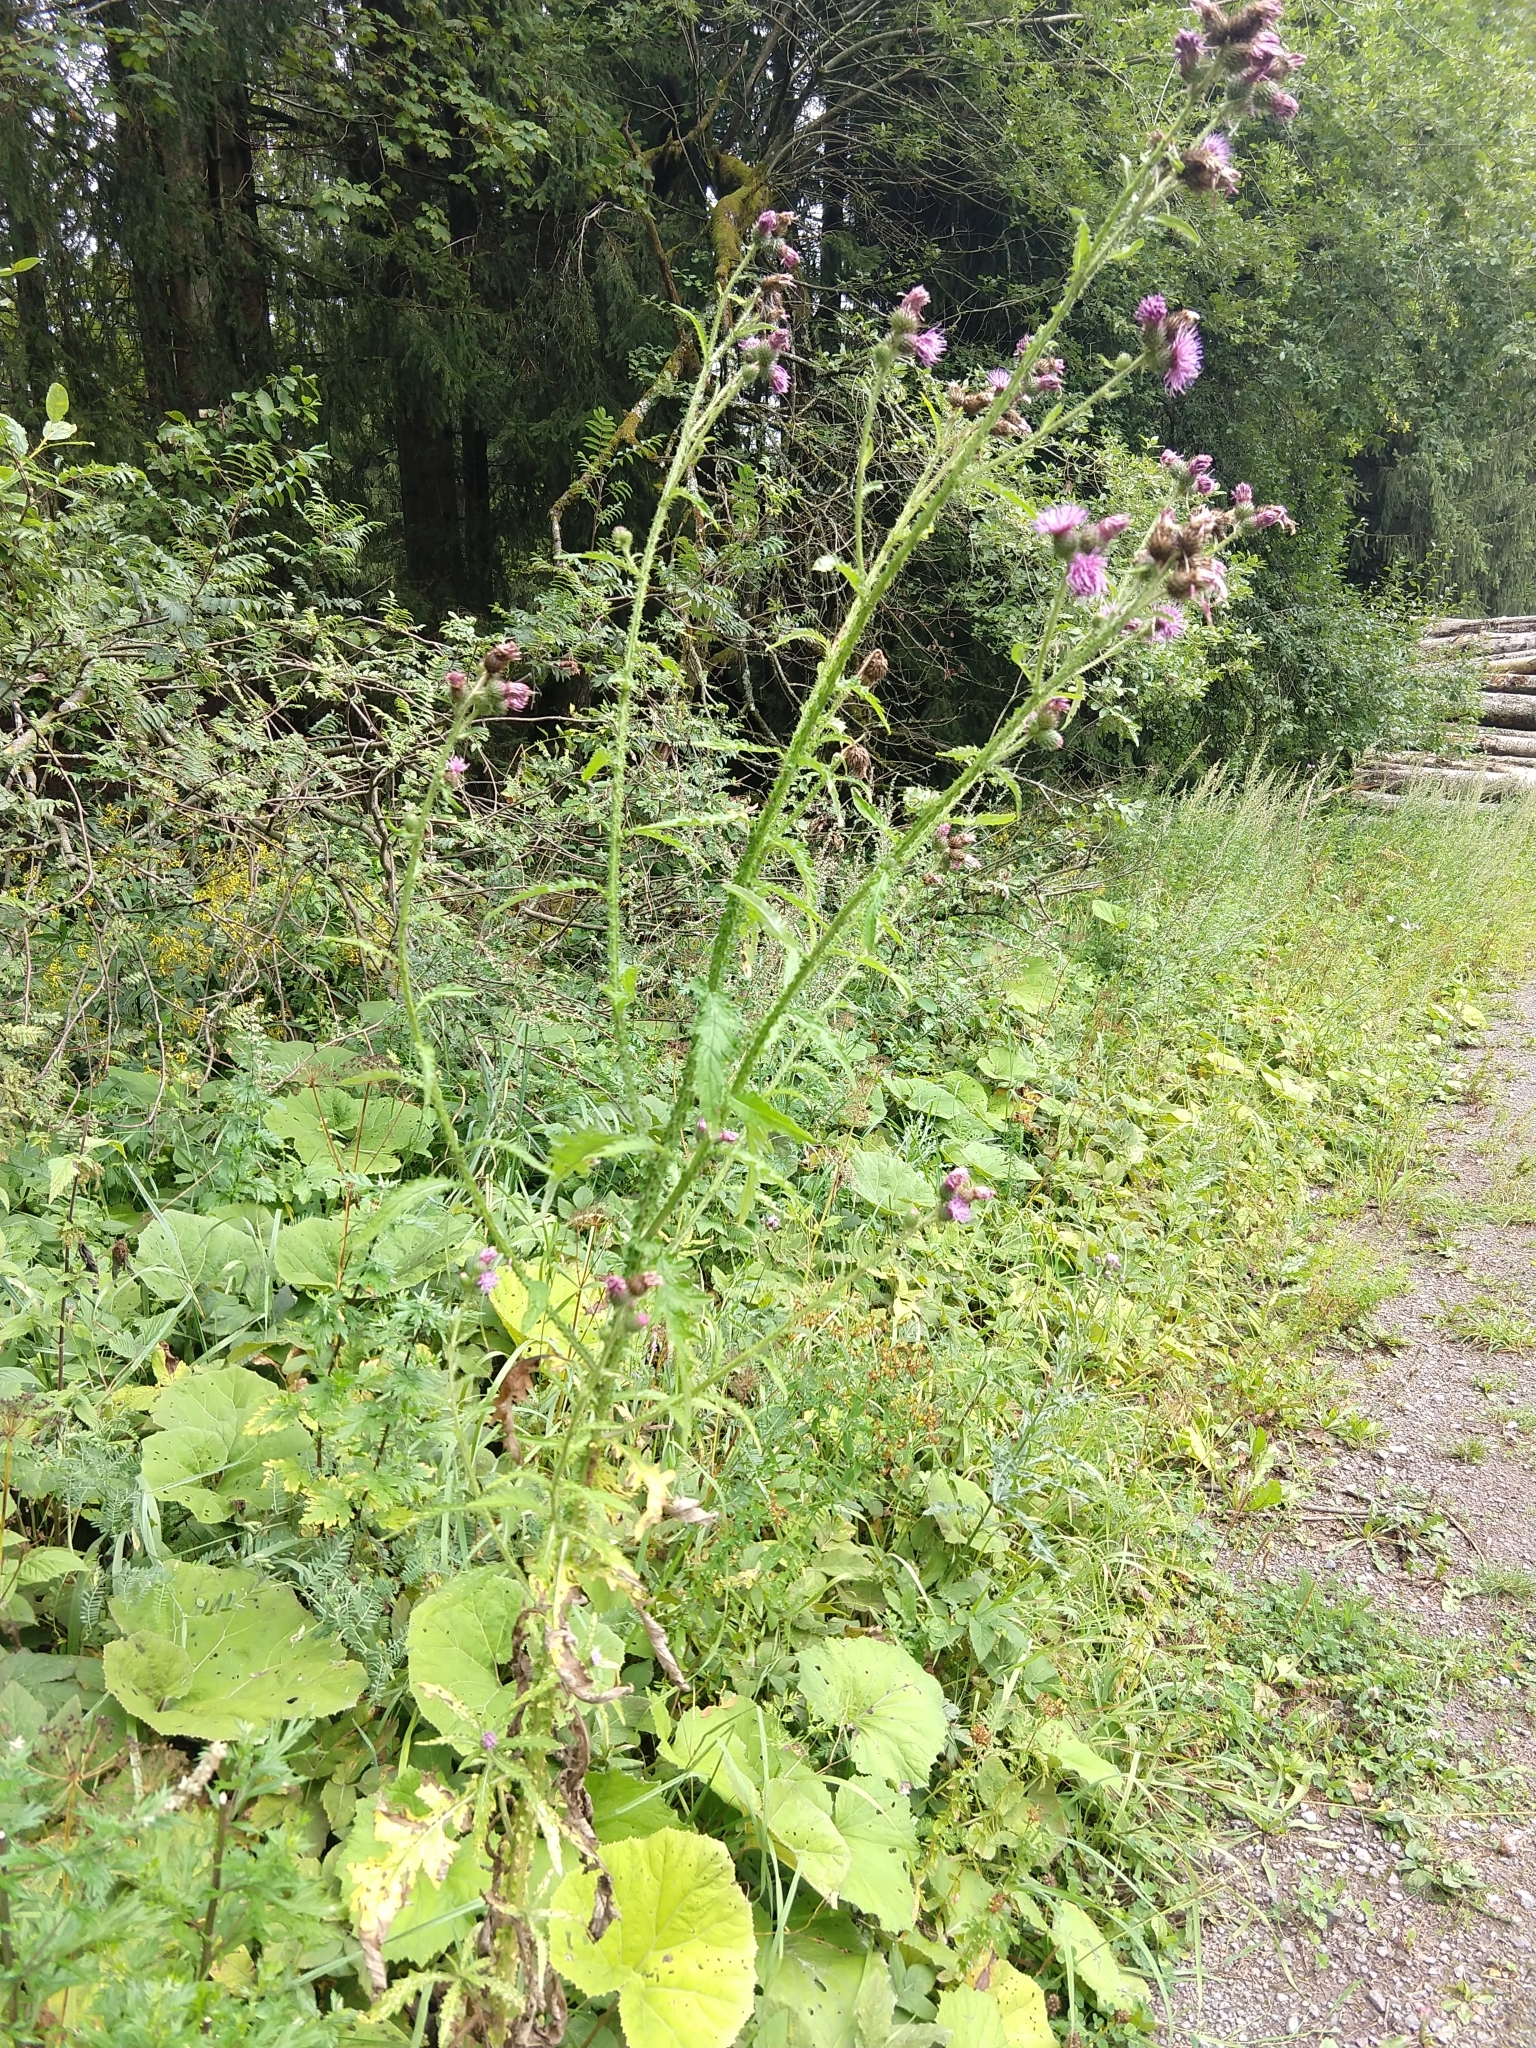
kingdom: Plantae
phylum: Tracheophyta
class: Magnoliopsida
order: Asterales
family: Asteraceae
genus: Carduus
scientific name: Carduus crispus
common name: Welted thistle
